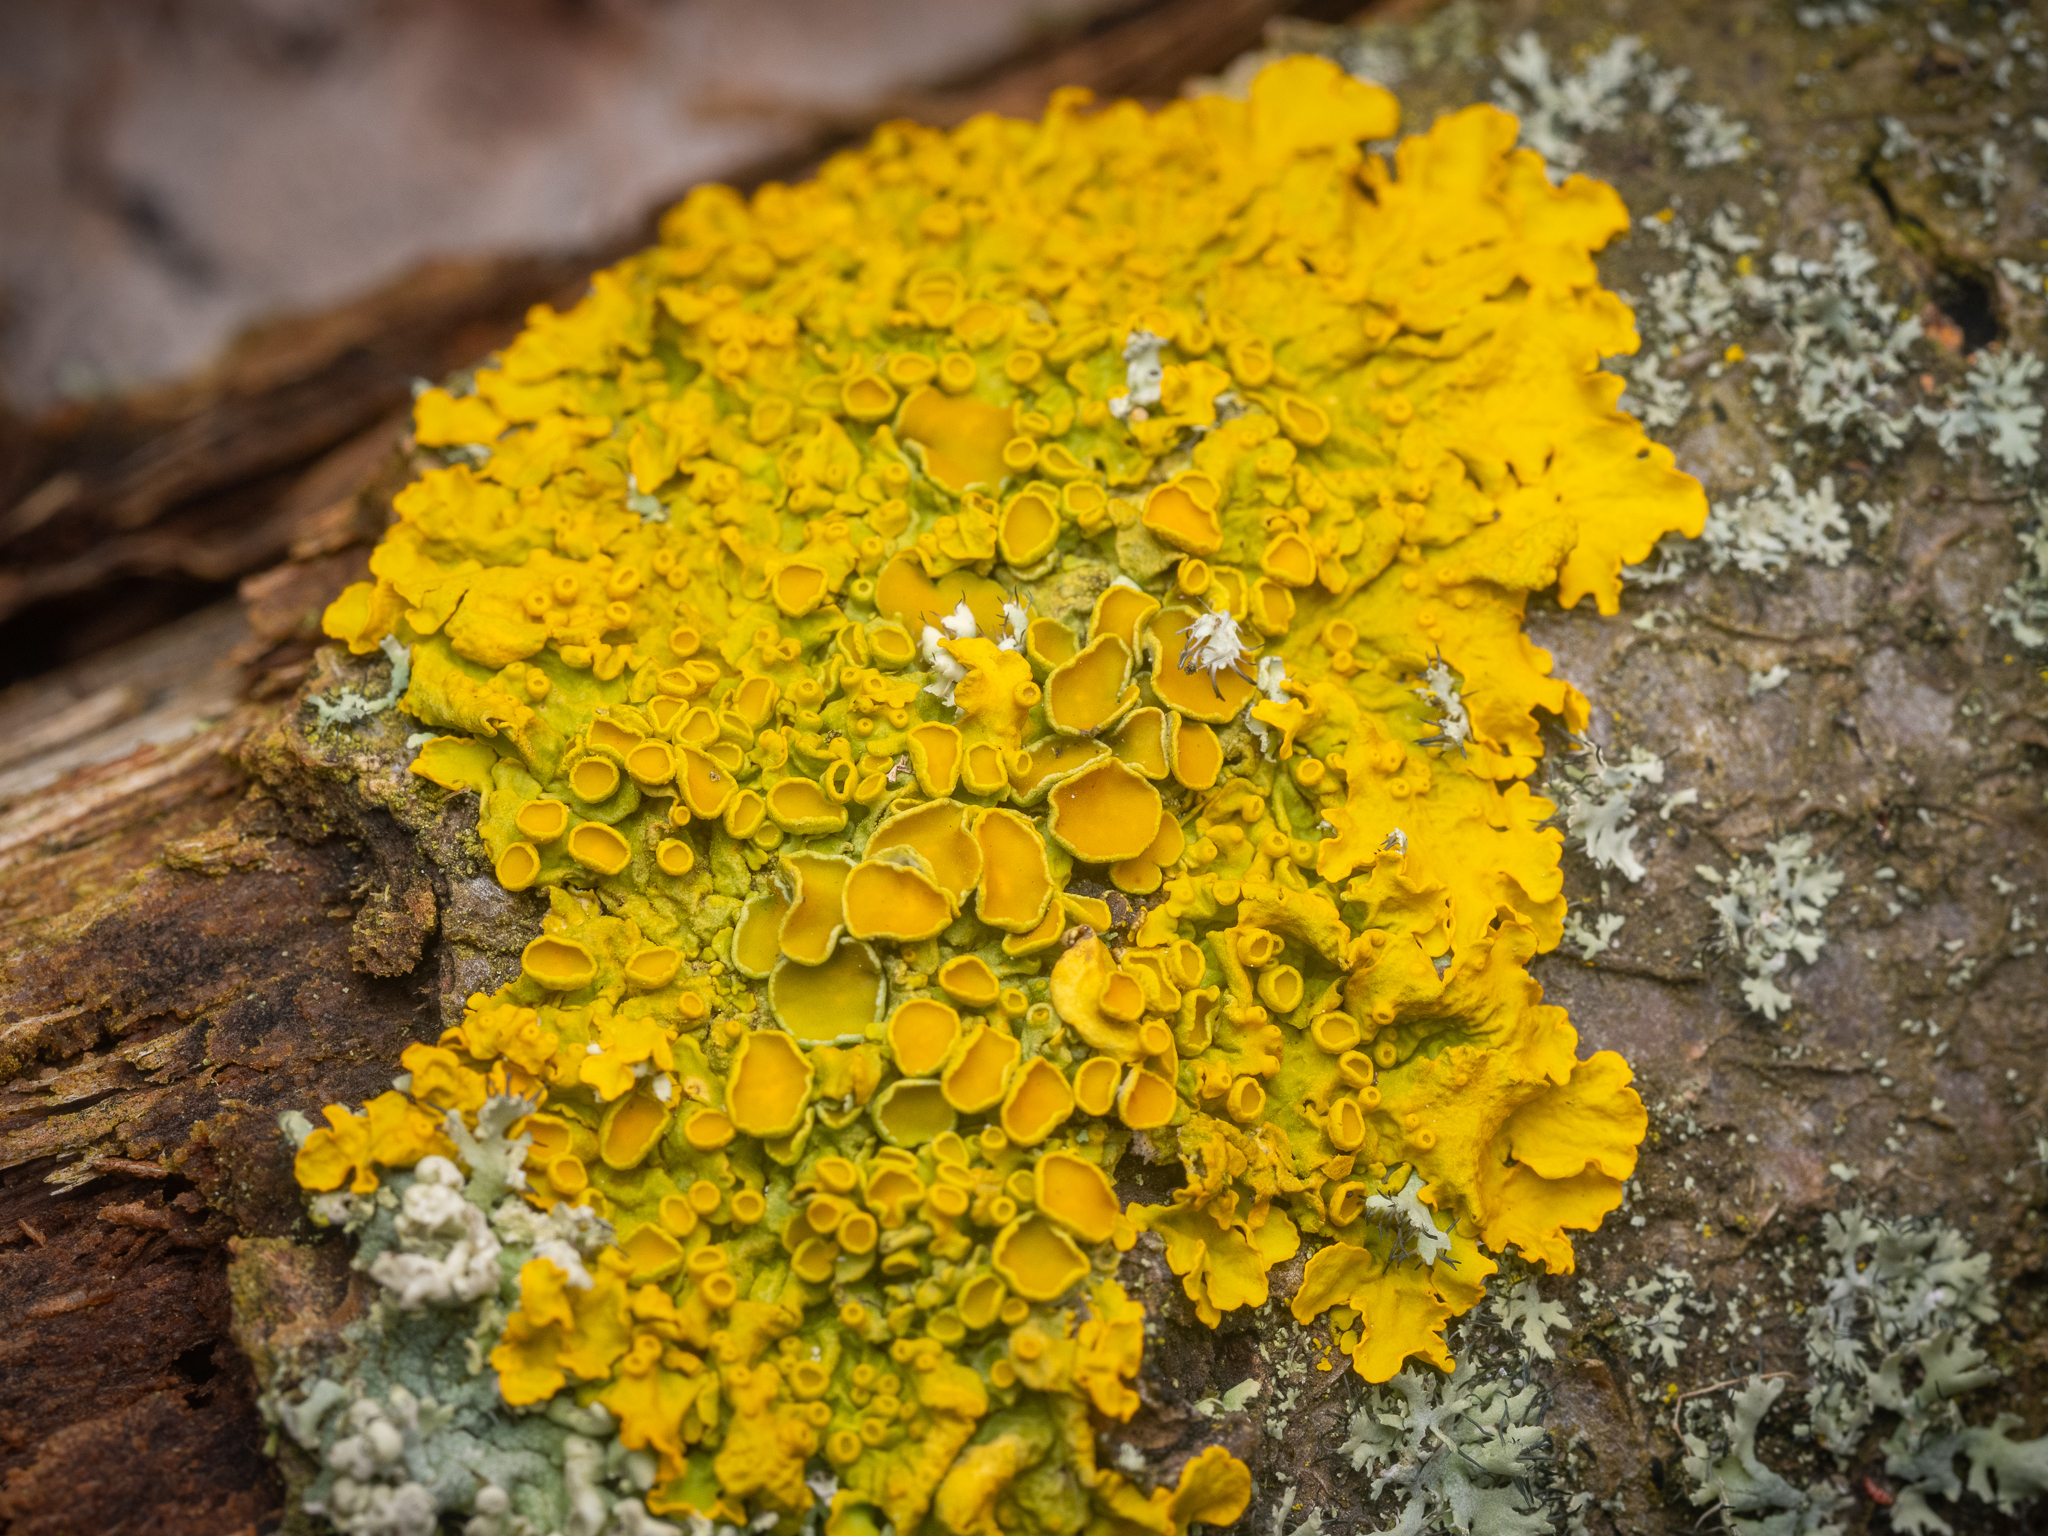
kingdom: Fungi
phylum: Ascomycota
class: Lecanoromycetes
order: Teloschistales
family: Teloschistaceae
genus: Xanthoria
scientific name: Xanthoria parietina
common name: Common orange lichen
